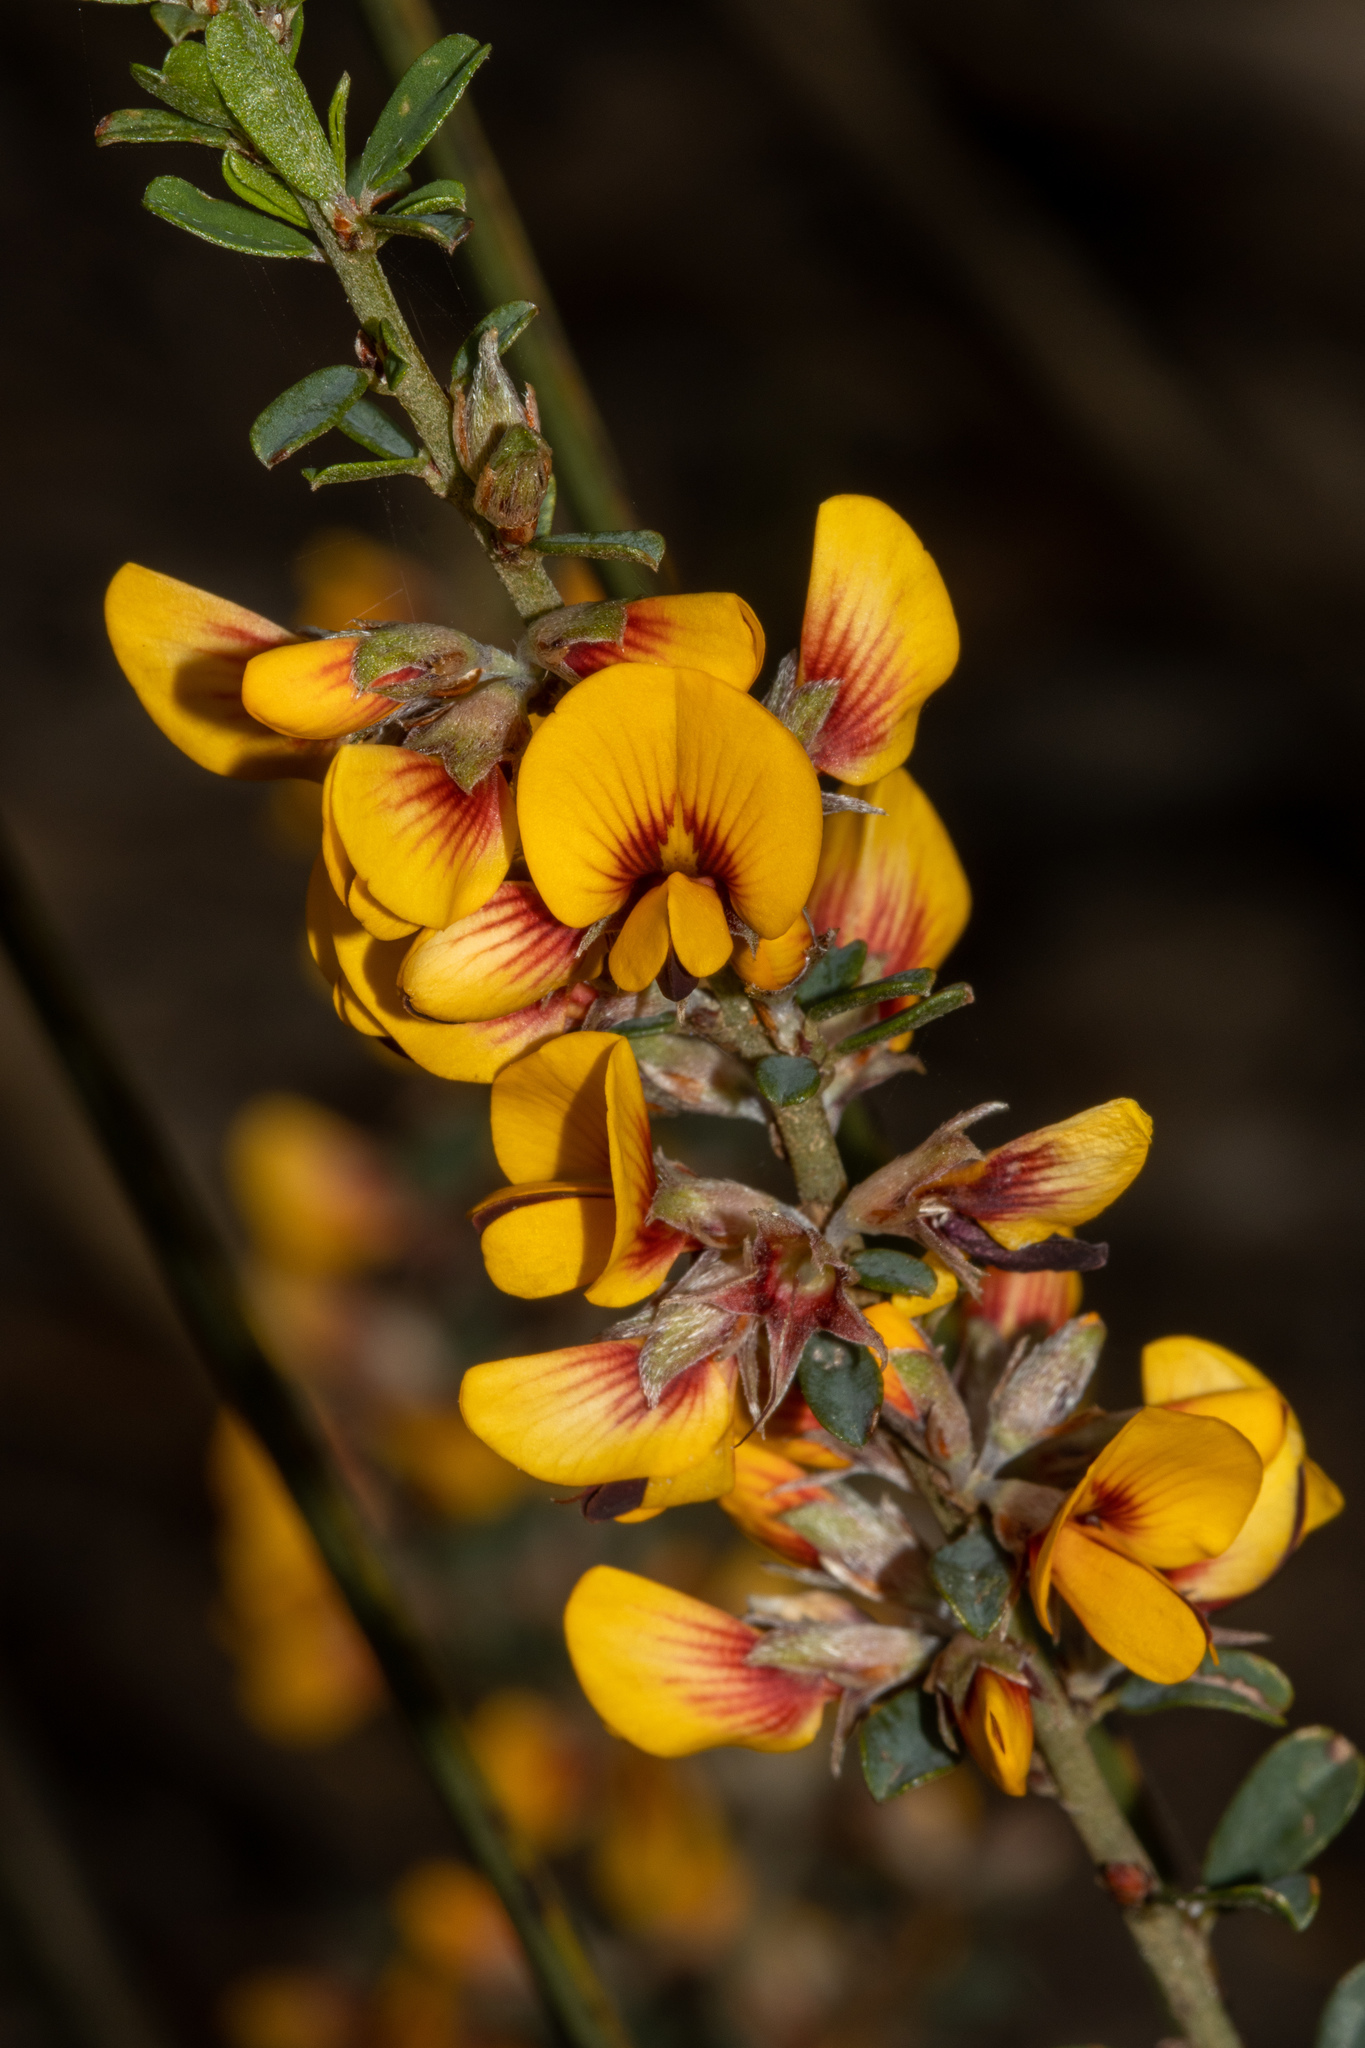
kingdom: Plantae
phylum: Tracheophyta
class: Magnoliopsida
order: Fabales
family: Fabaceae
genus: Pultenaea
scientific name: Pultenaea largiflorens
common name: Twiggy bush-pea
